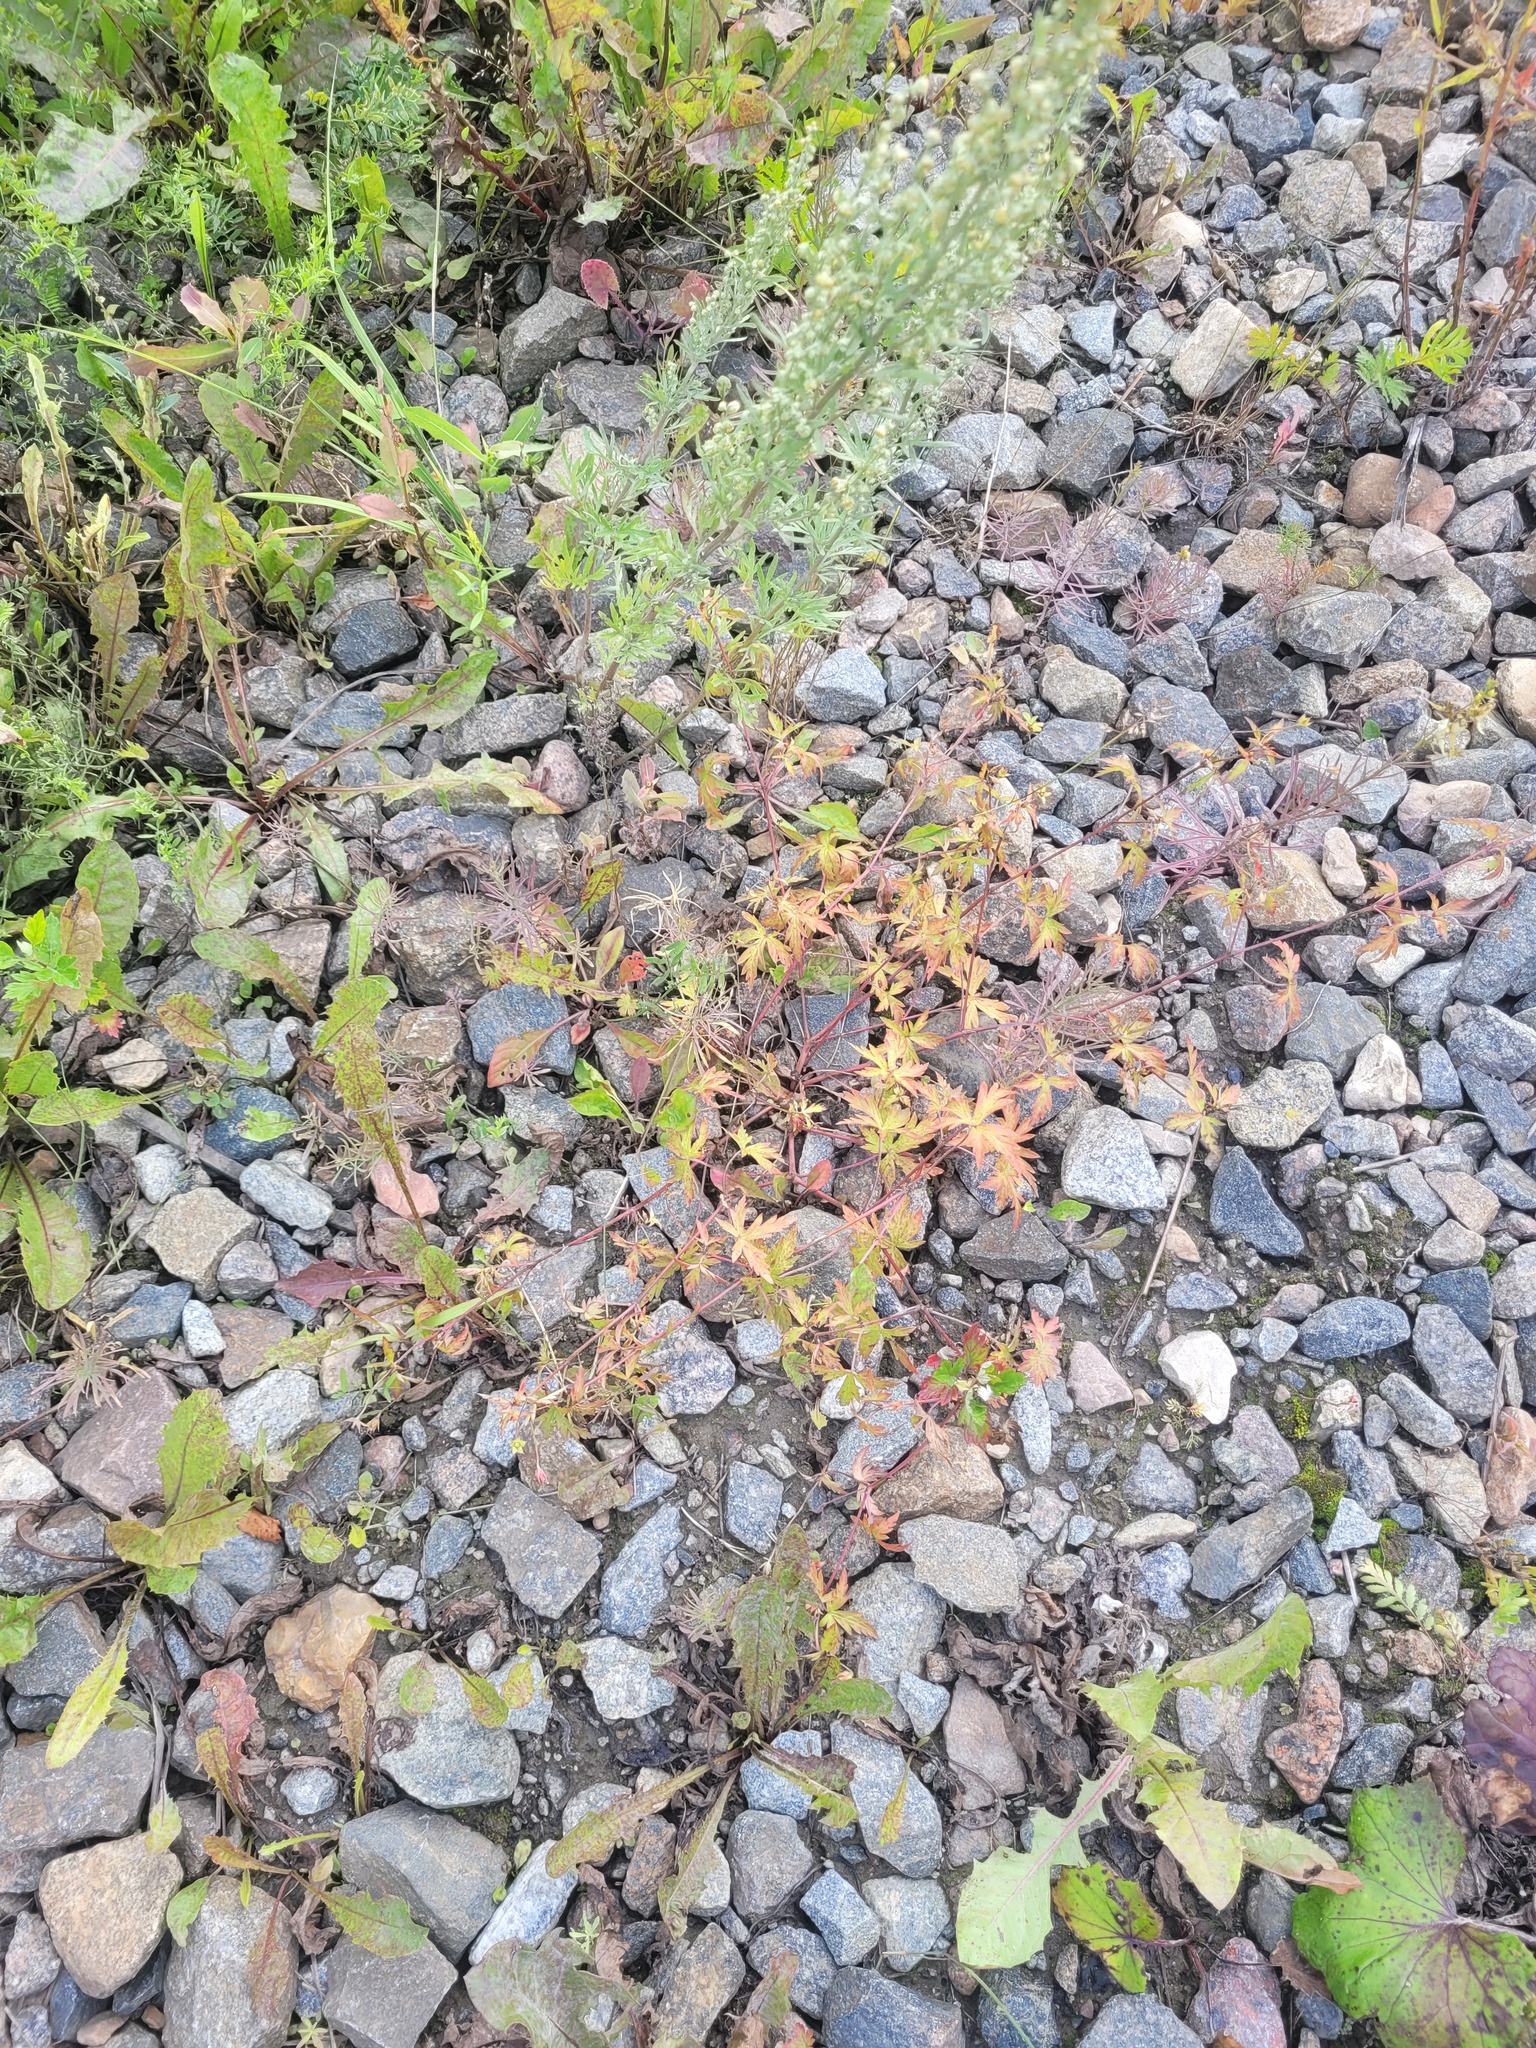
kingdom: Plantae
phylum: Tracheophyta
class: Magnoliopsida
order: Geraniales
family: Geraniaceae
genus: Geranium
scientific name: Geranium sibiricum
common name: Siberian crane's-bill
